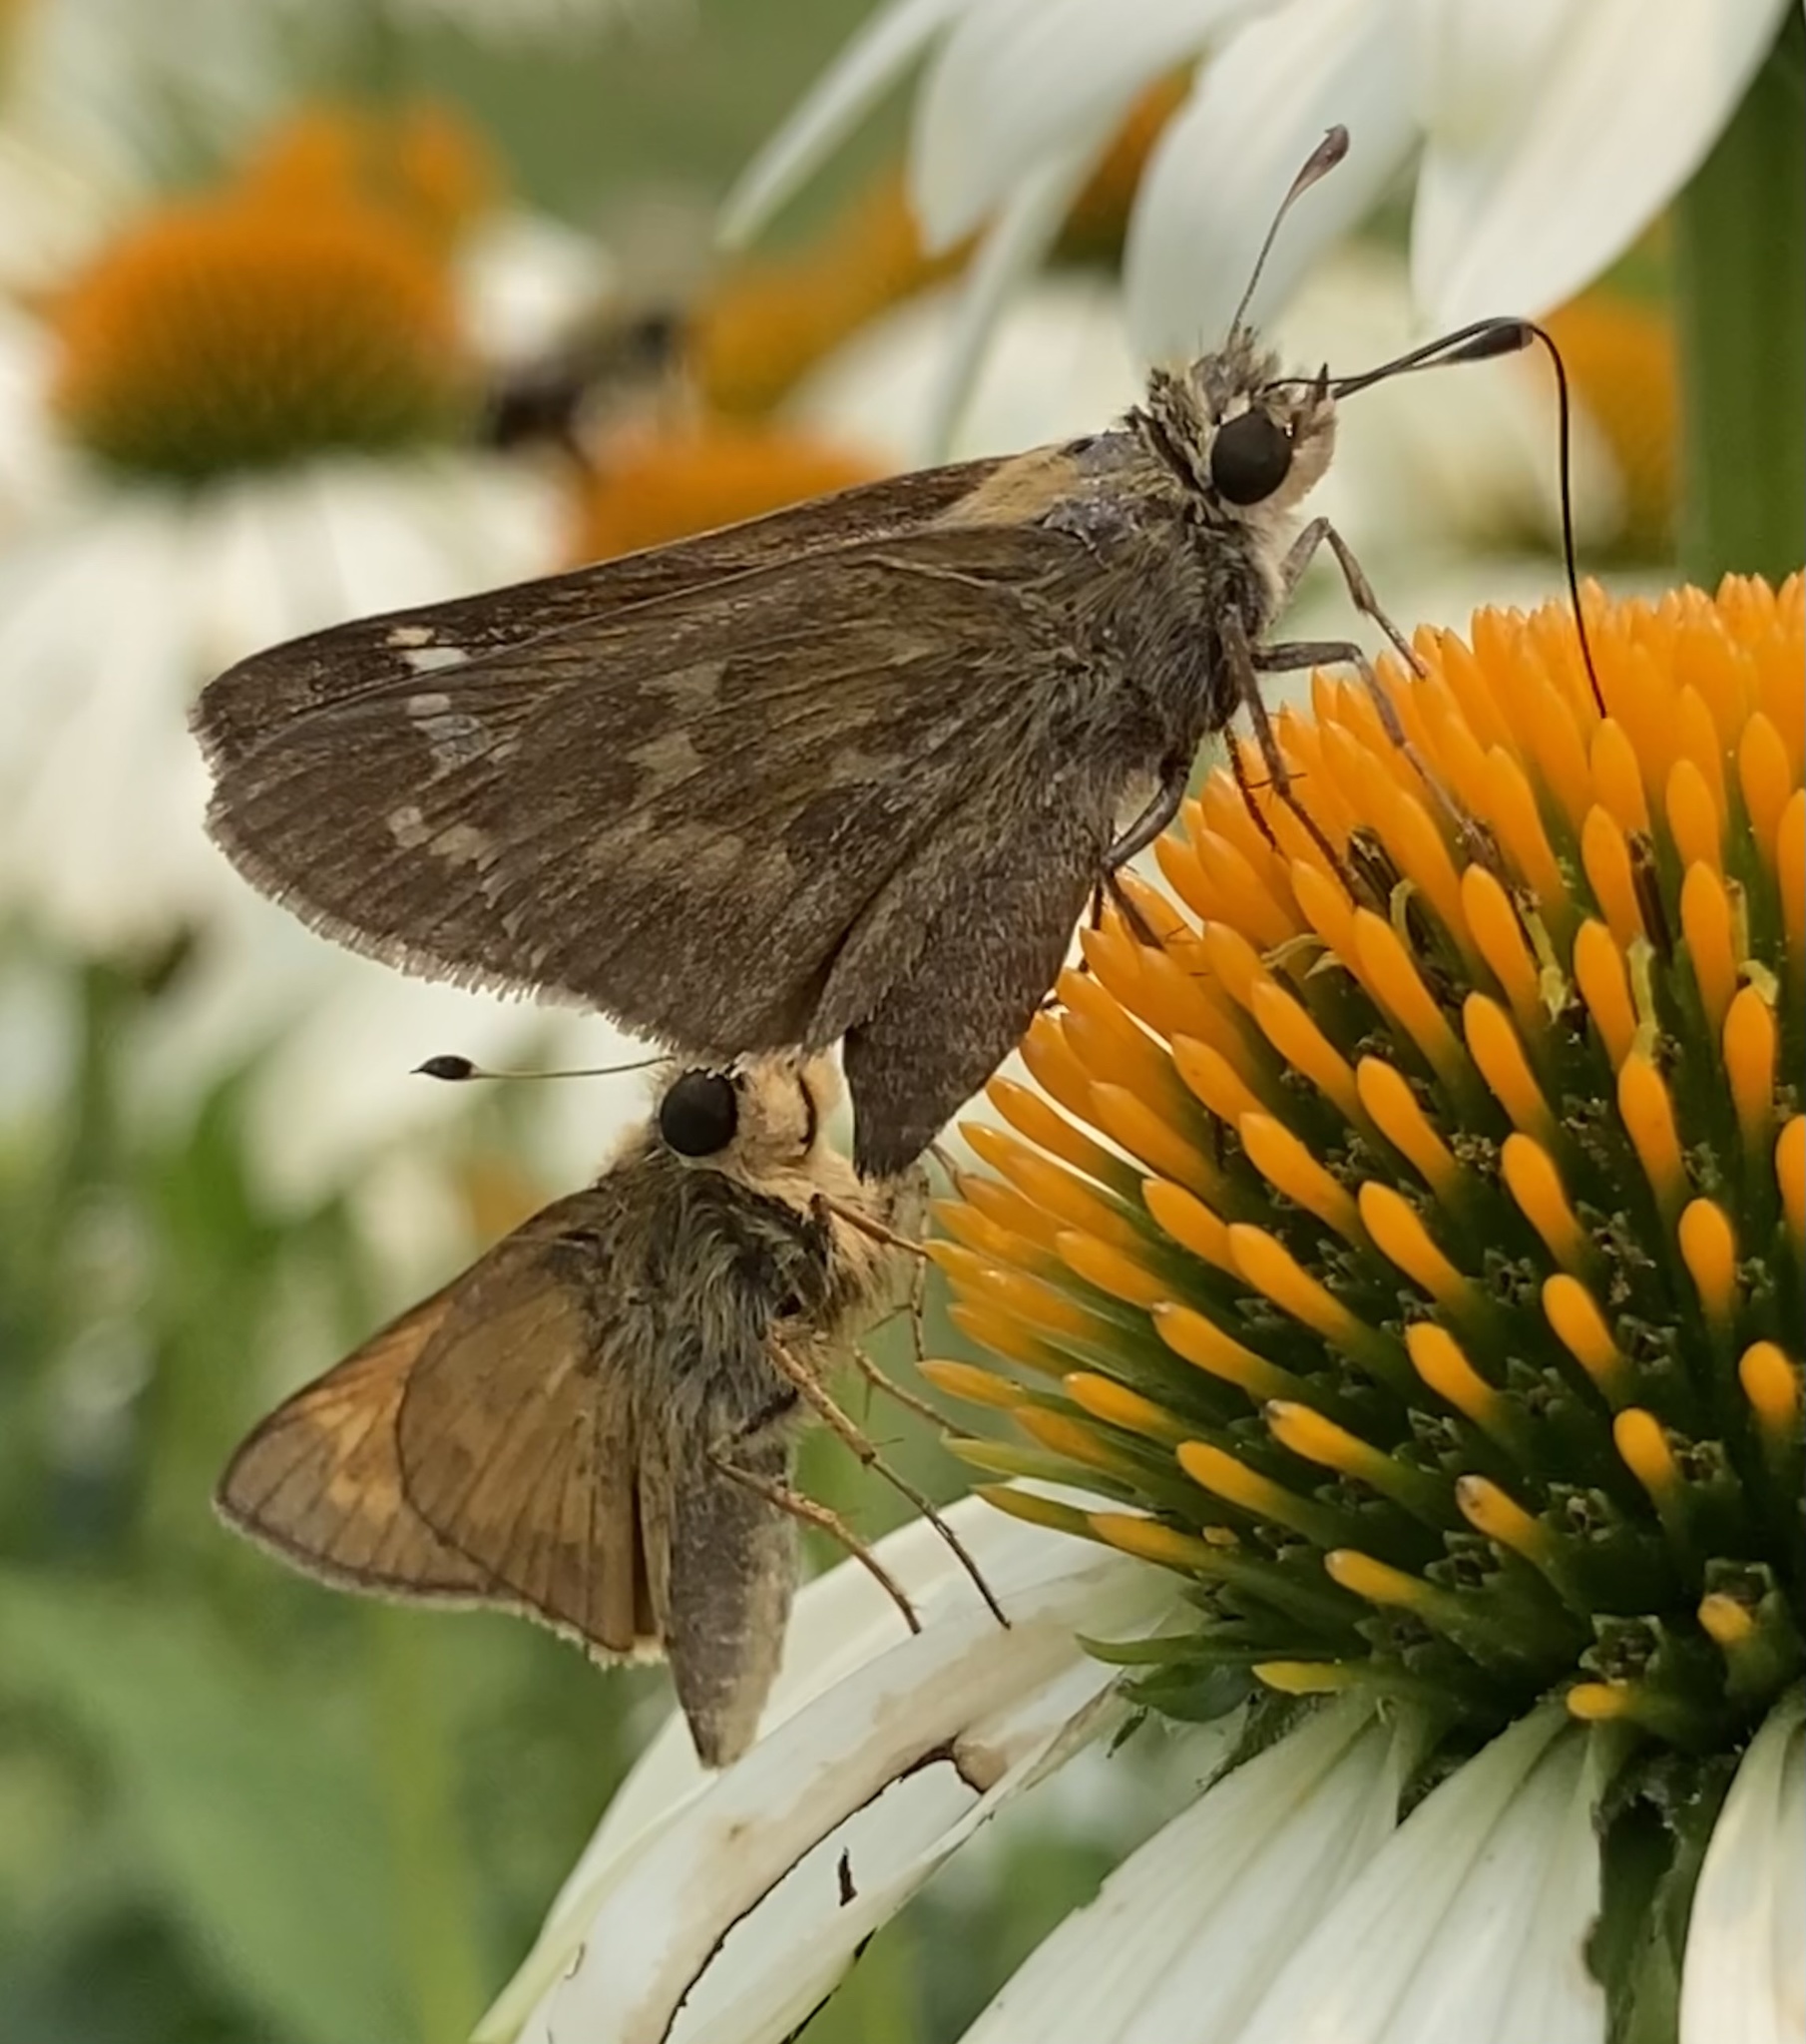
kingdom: Animalia
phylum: Arthropoda
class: Insecta
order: Lepidoptera
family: Hesperiidae
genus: Atalopedes
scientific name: Atalopedes
